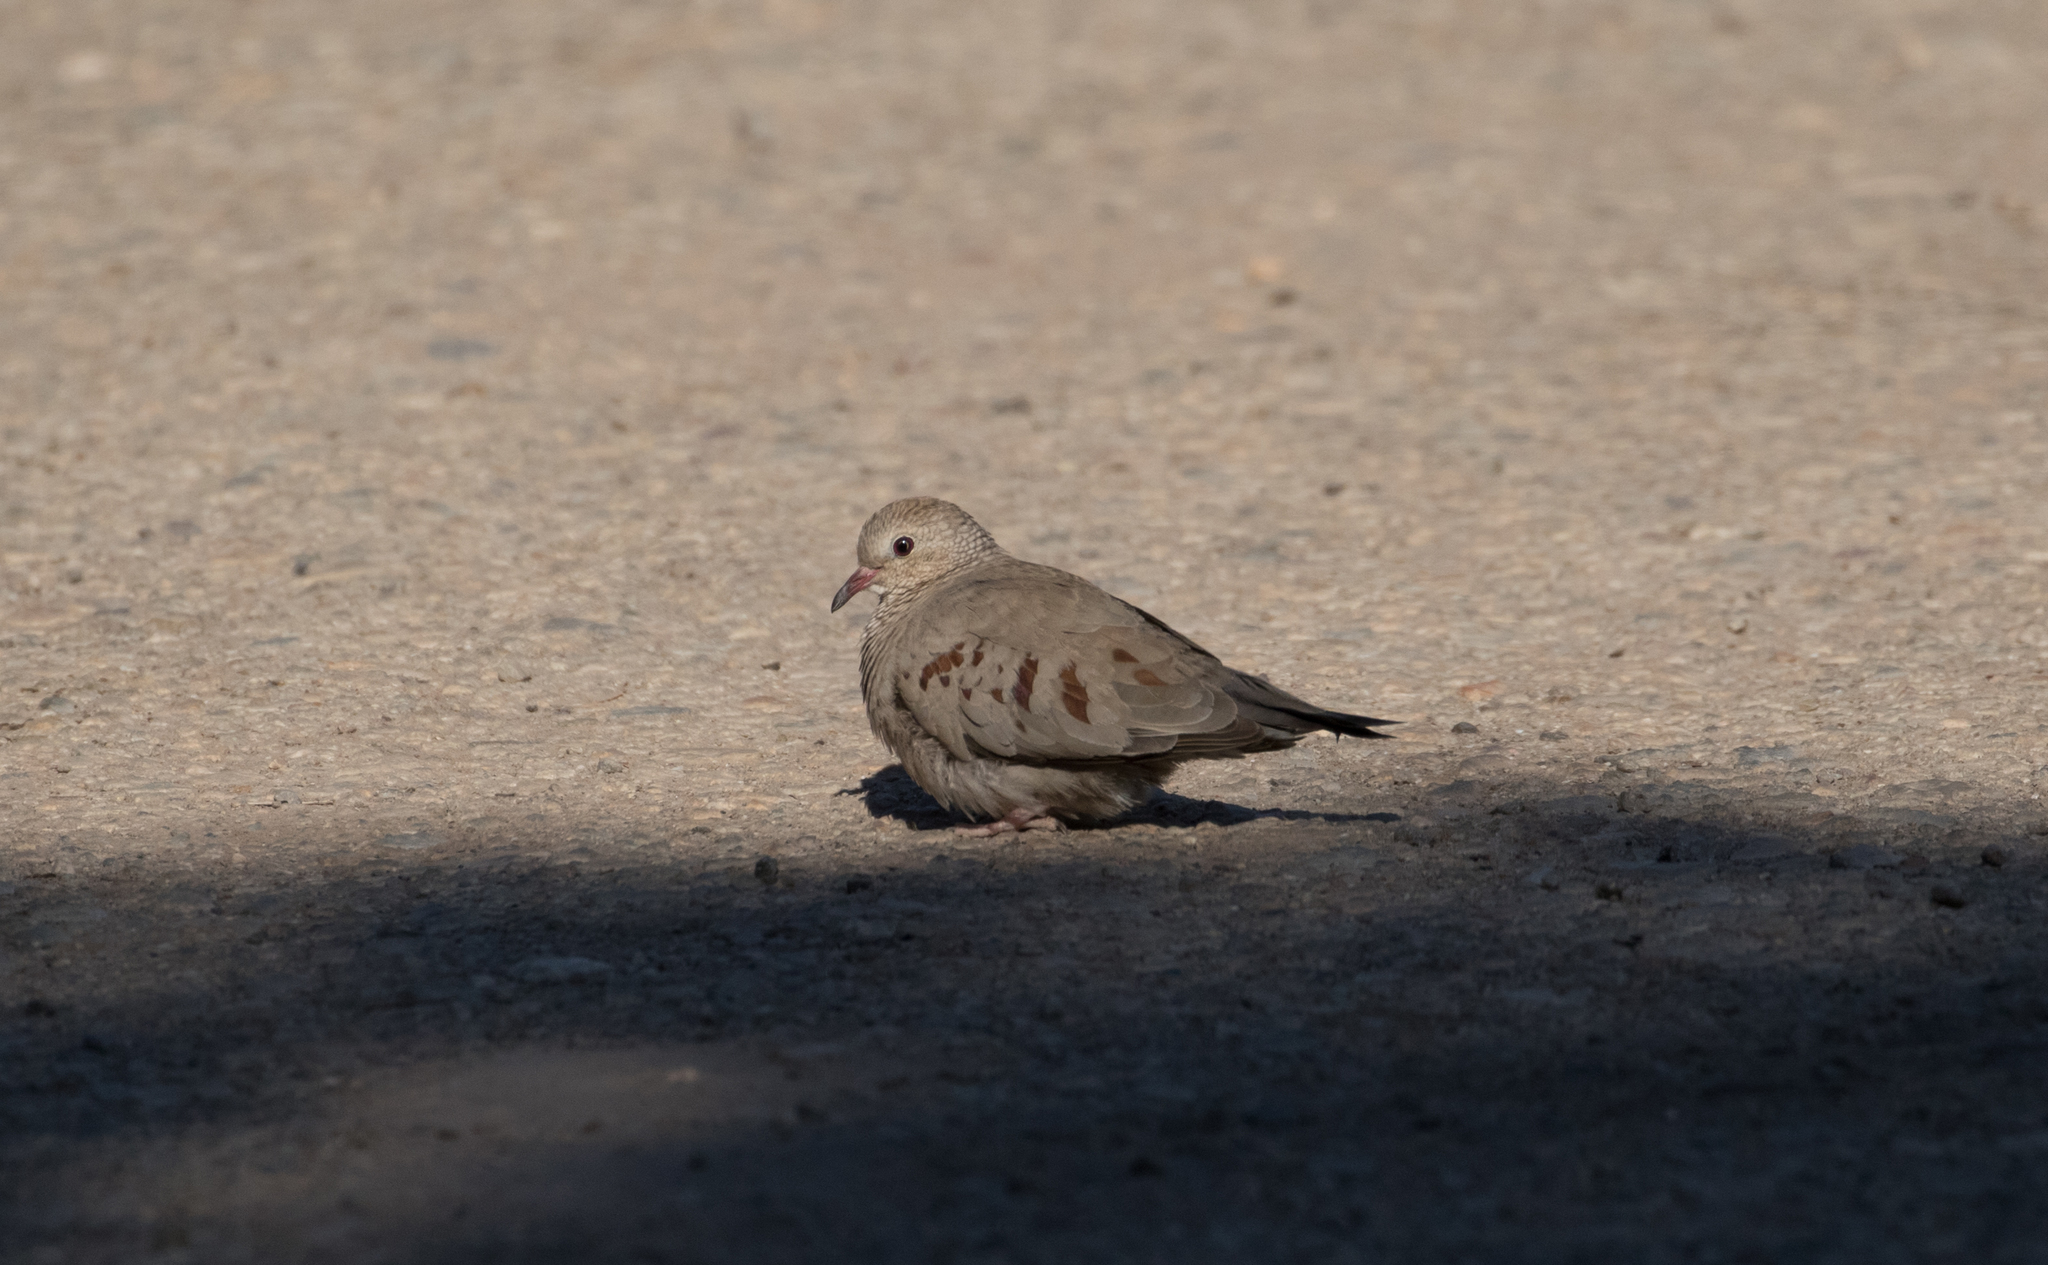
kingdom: Animalia
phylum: Chordata
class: Aves
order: Columbiformes
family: Columbidae
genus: Columbina
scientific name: Columbina passerina
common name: Common ground-dove
